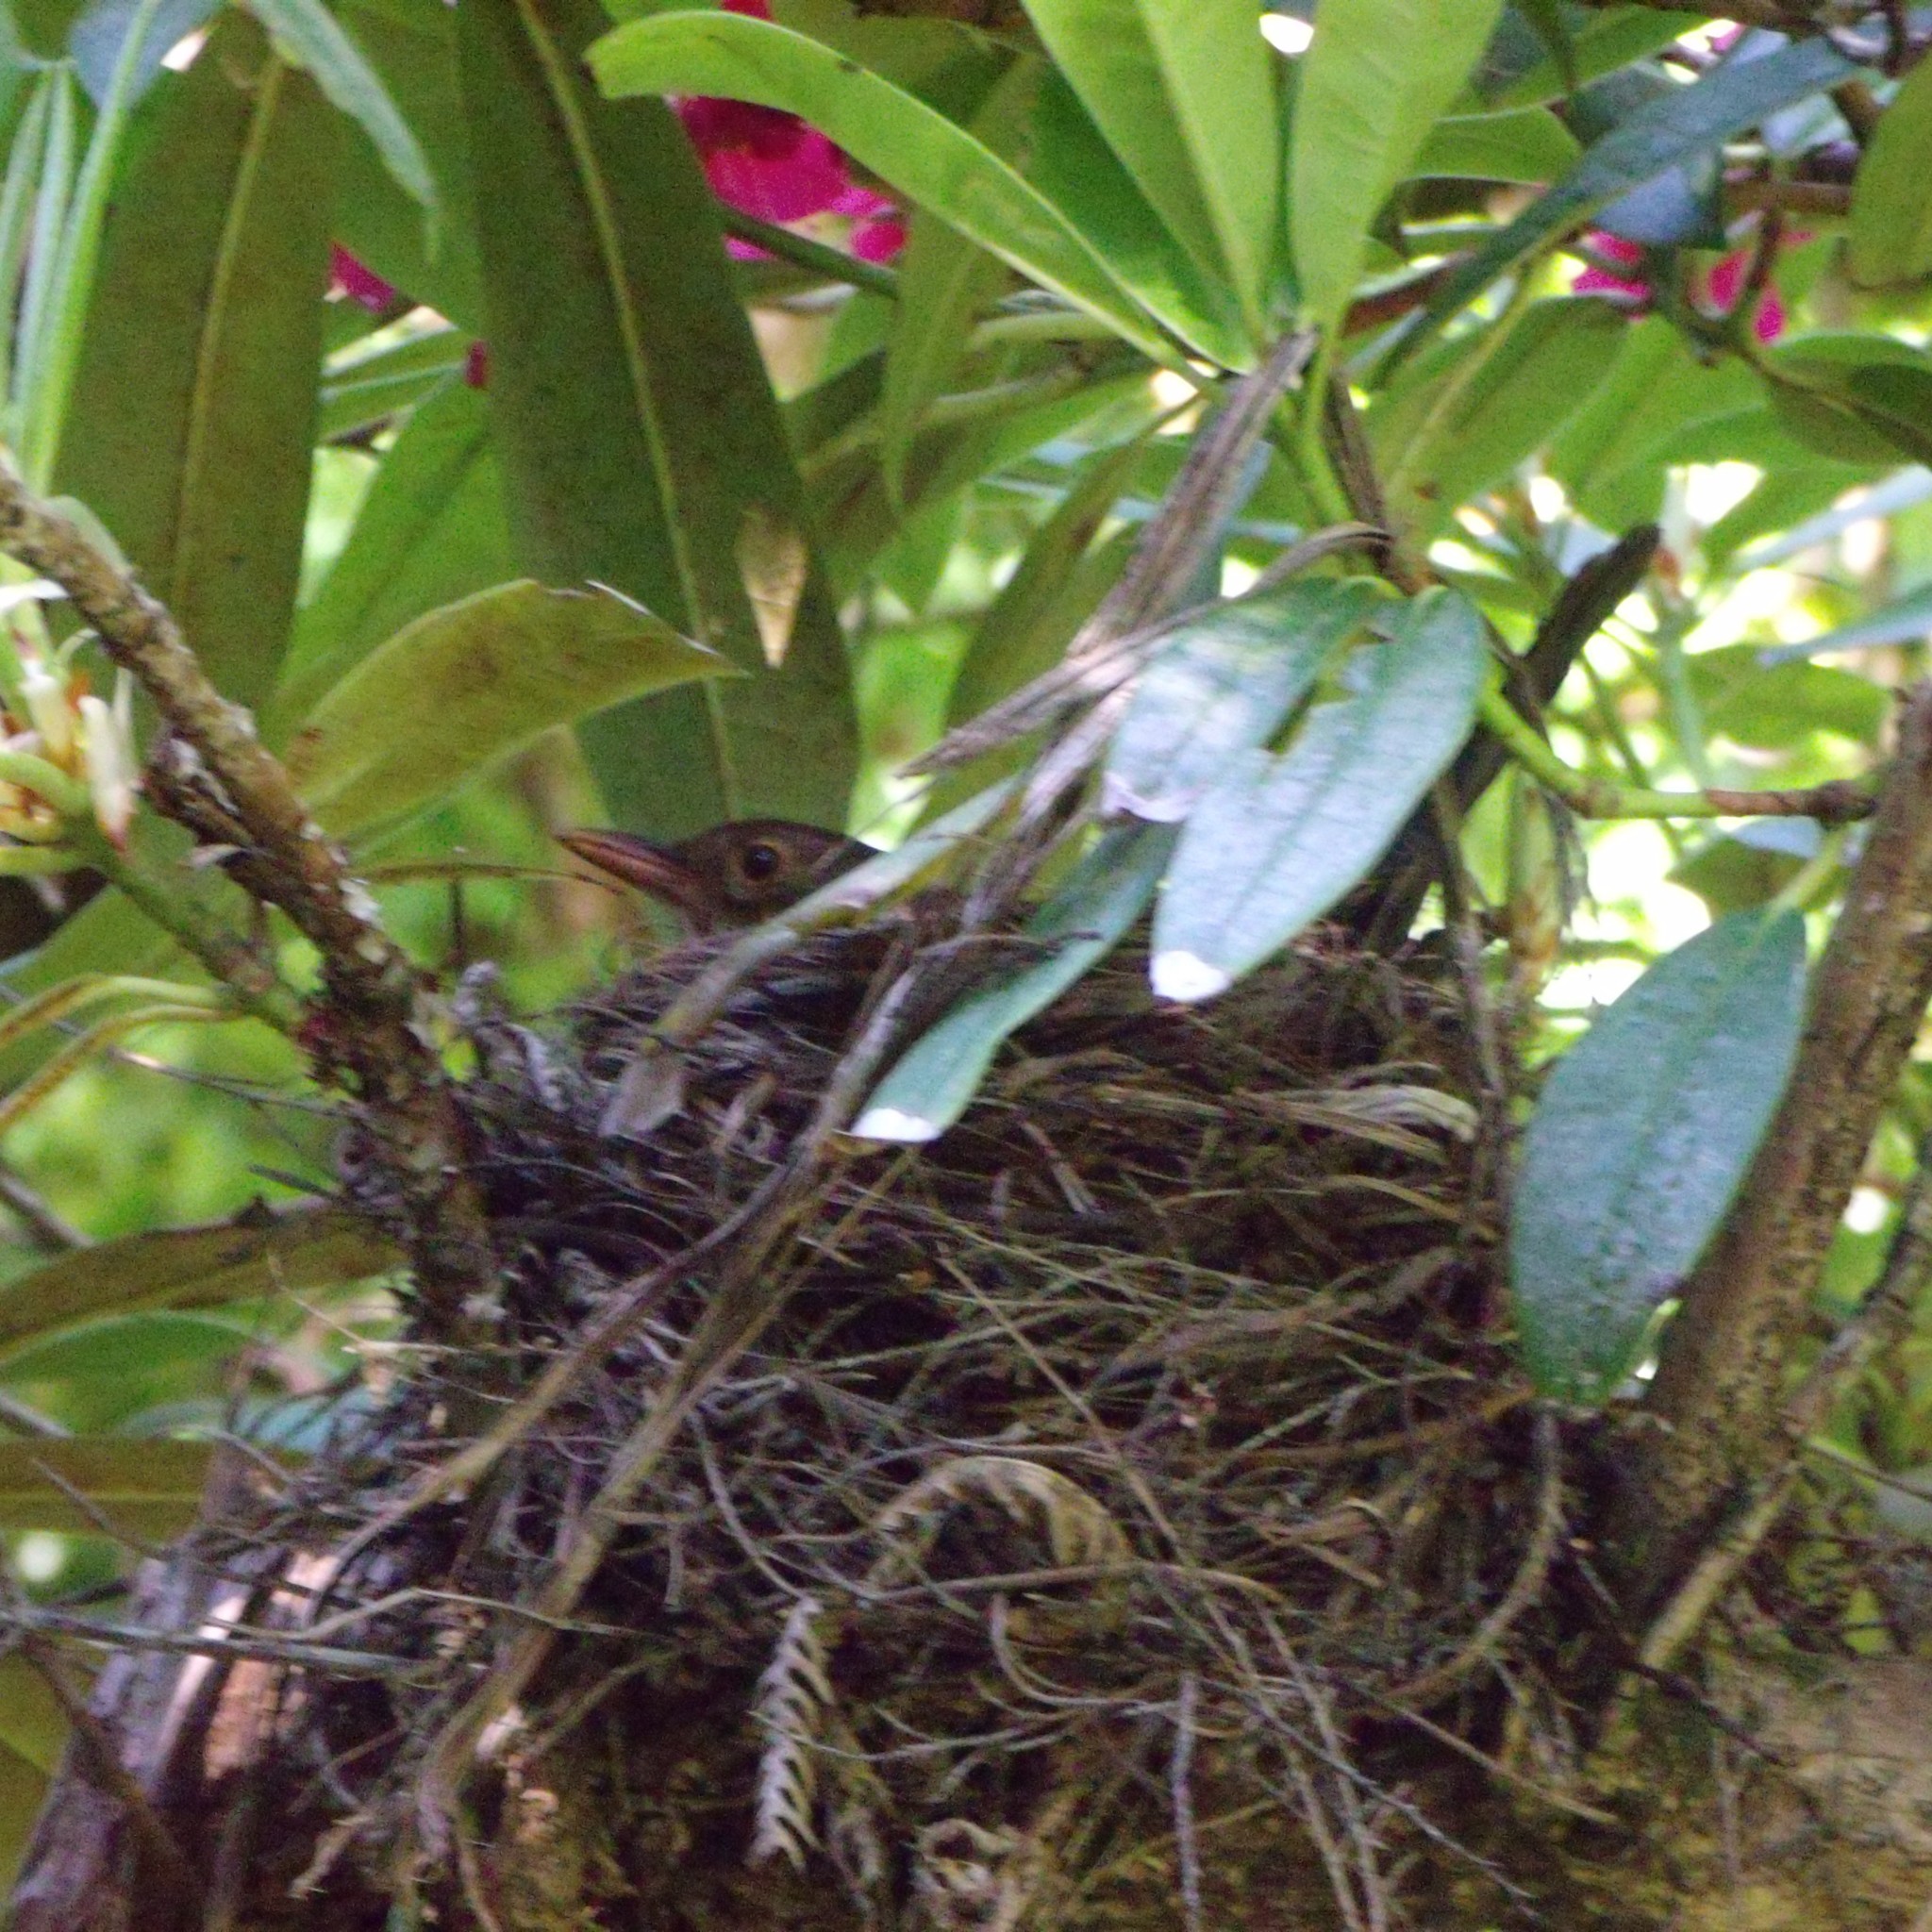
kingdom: Animalia
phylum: Chordata
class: Aves
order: Passeriformes
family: Turdidae
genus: Turdus
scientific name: Turdus merula
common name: Common blackbird
